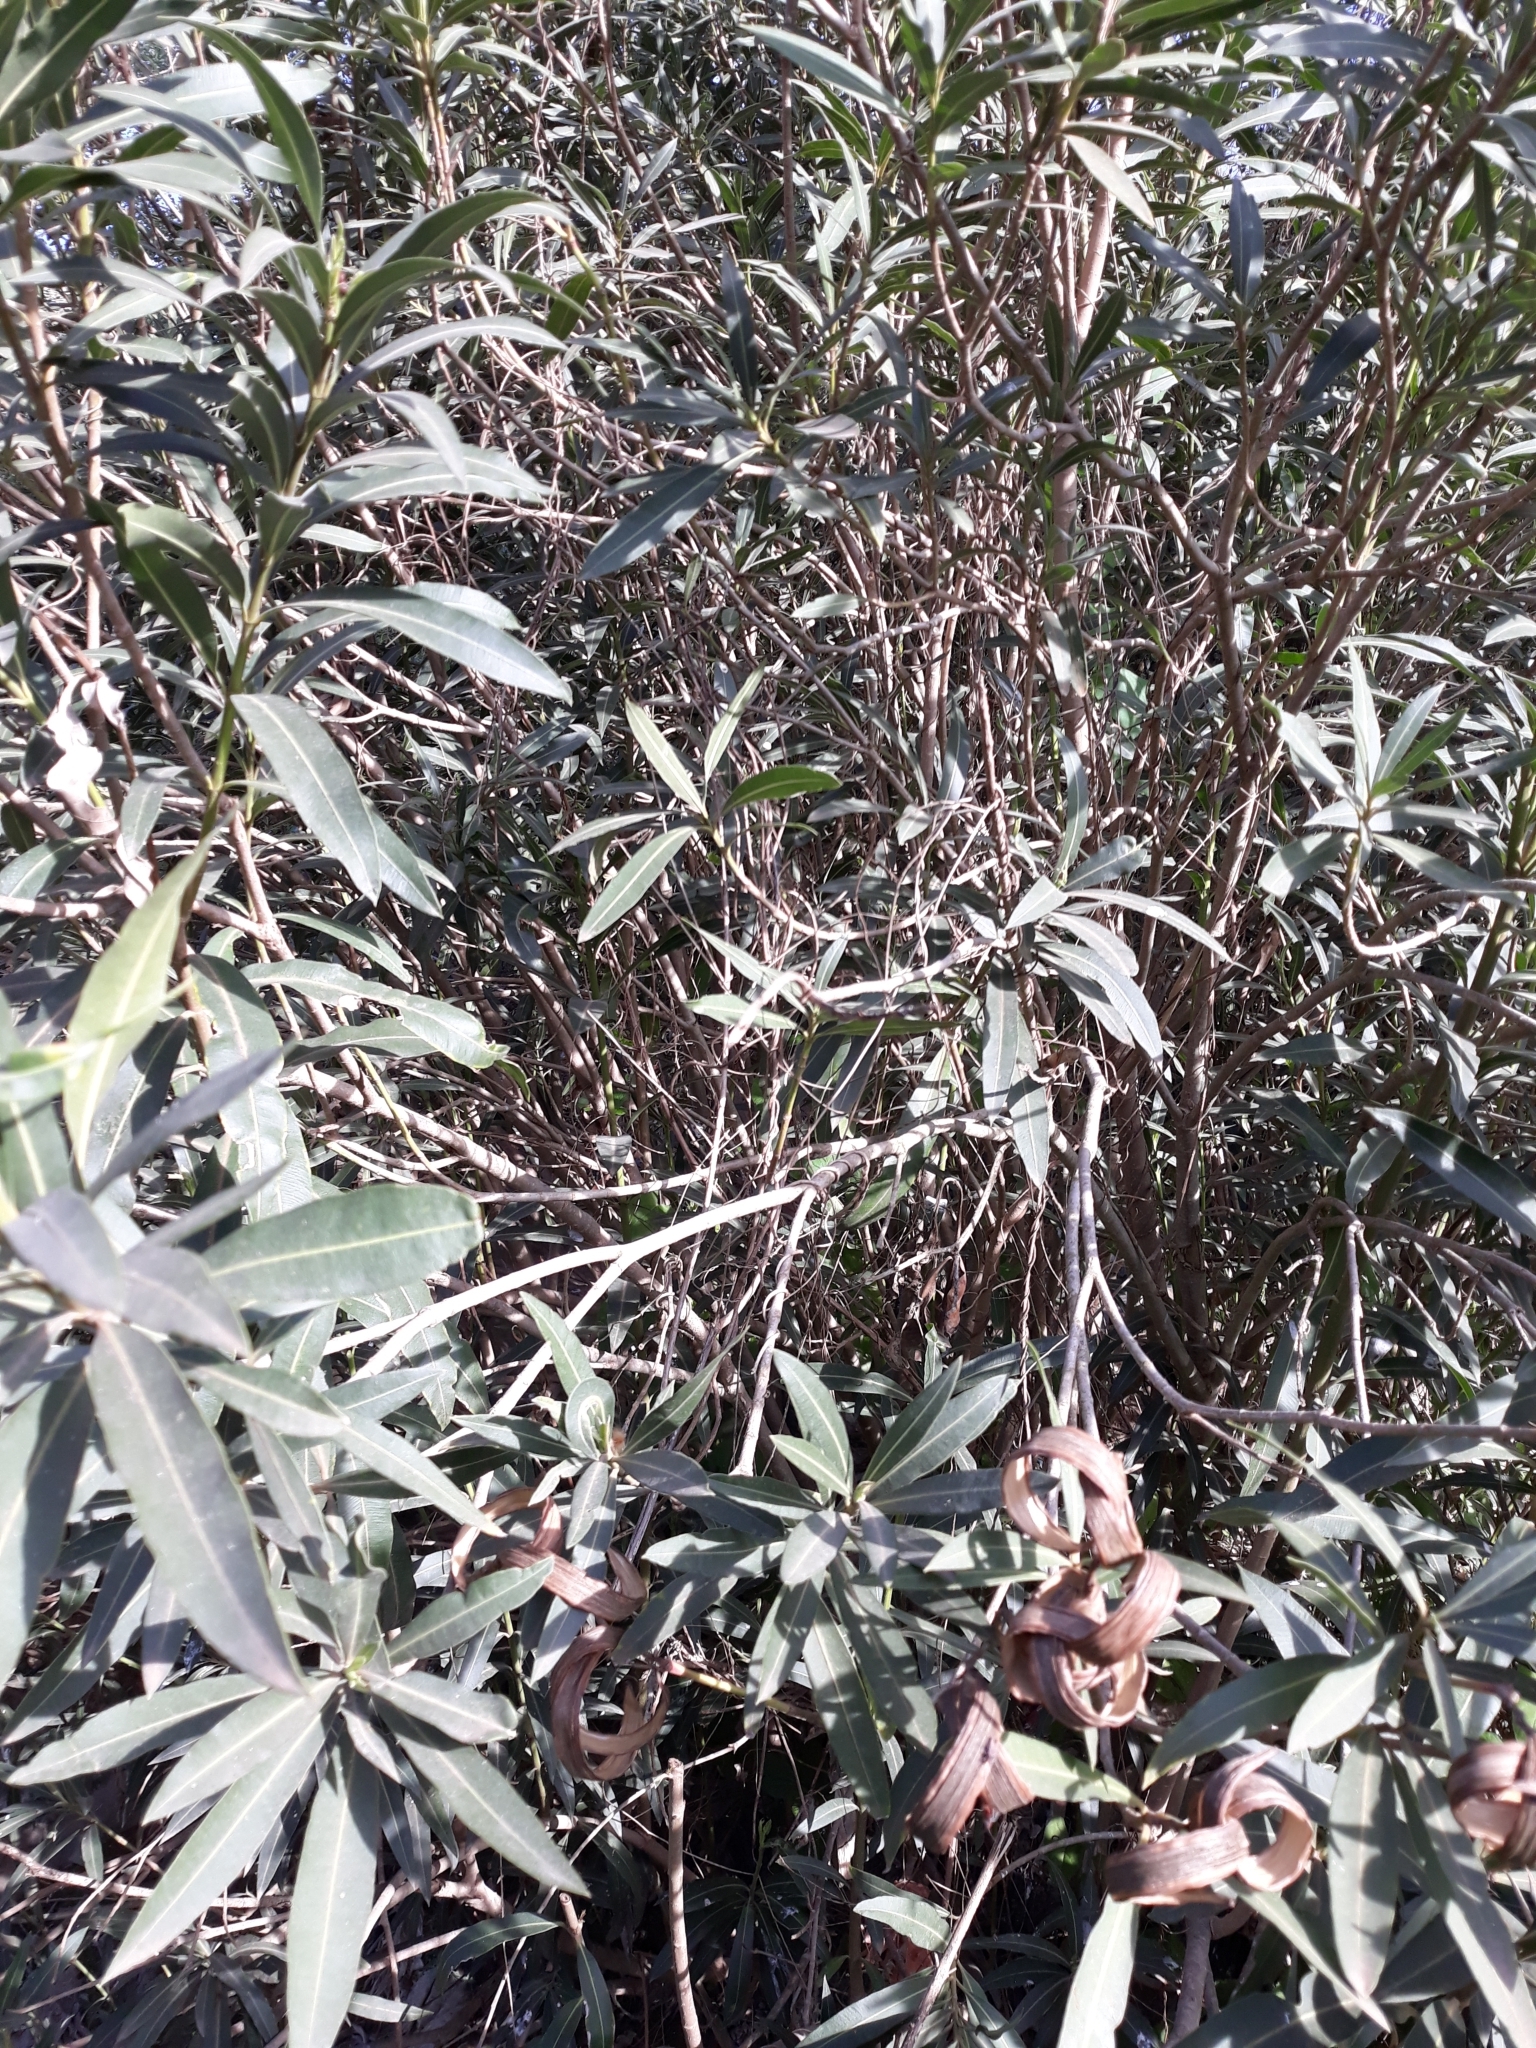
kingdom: Plantae
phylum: Tracheophyta
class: Magnoliopsida
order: Gentianales
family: Apocynaceae
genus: Nerium
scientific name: Nerium oleander
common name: Oleander
